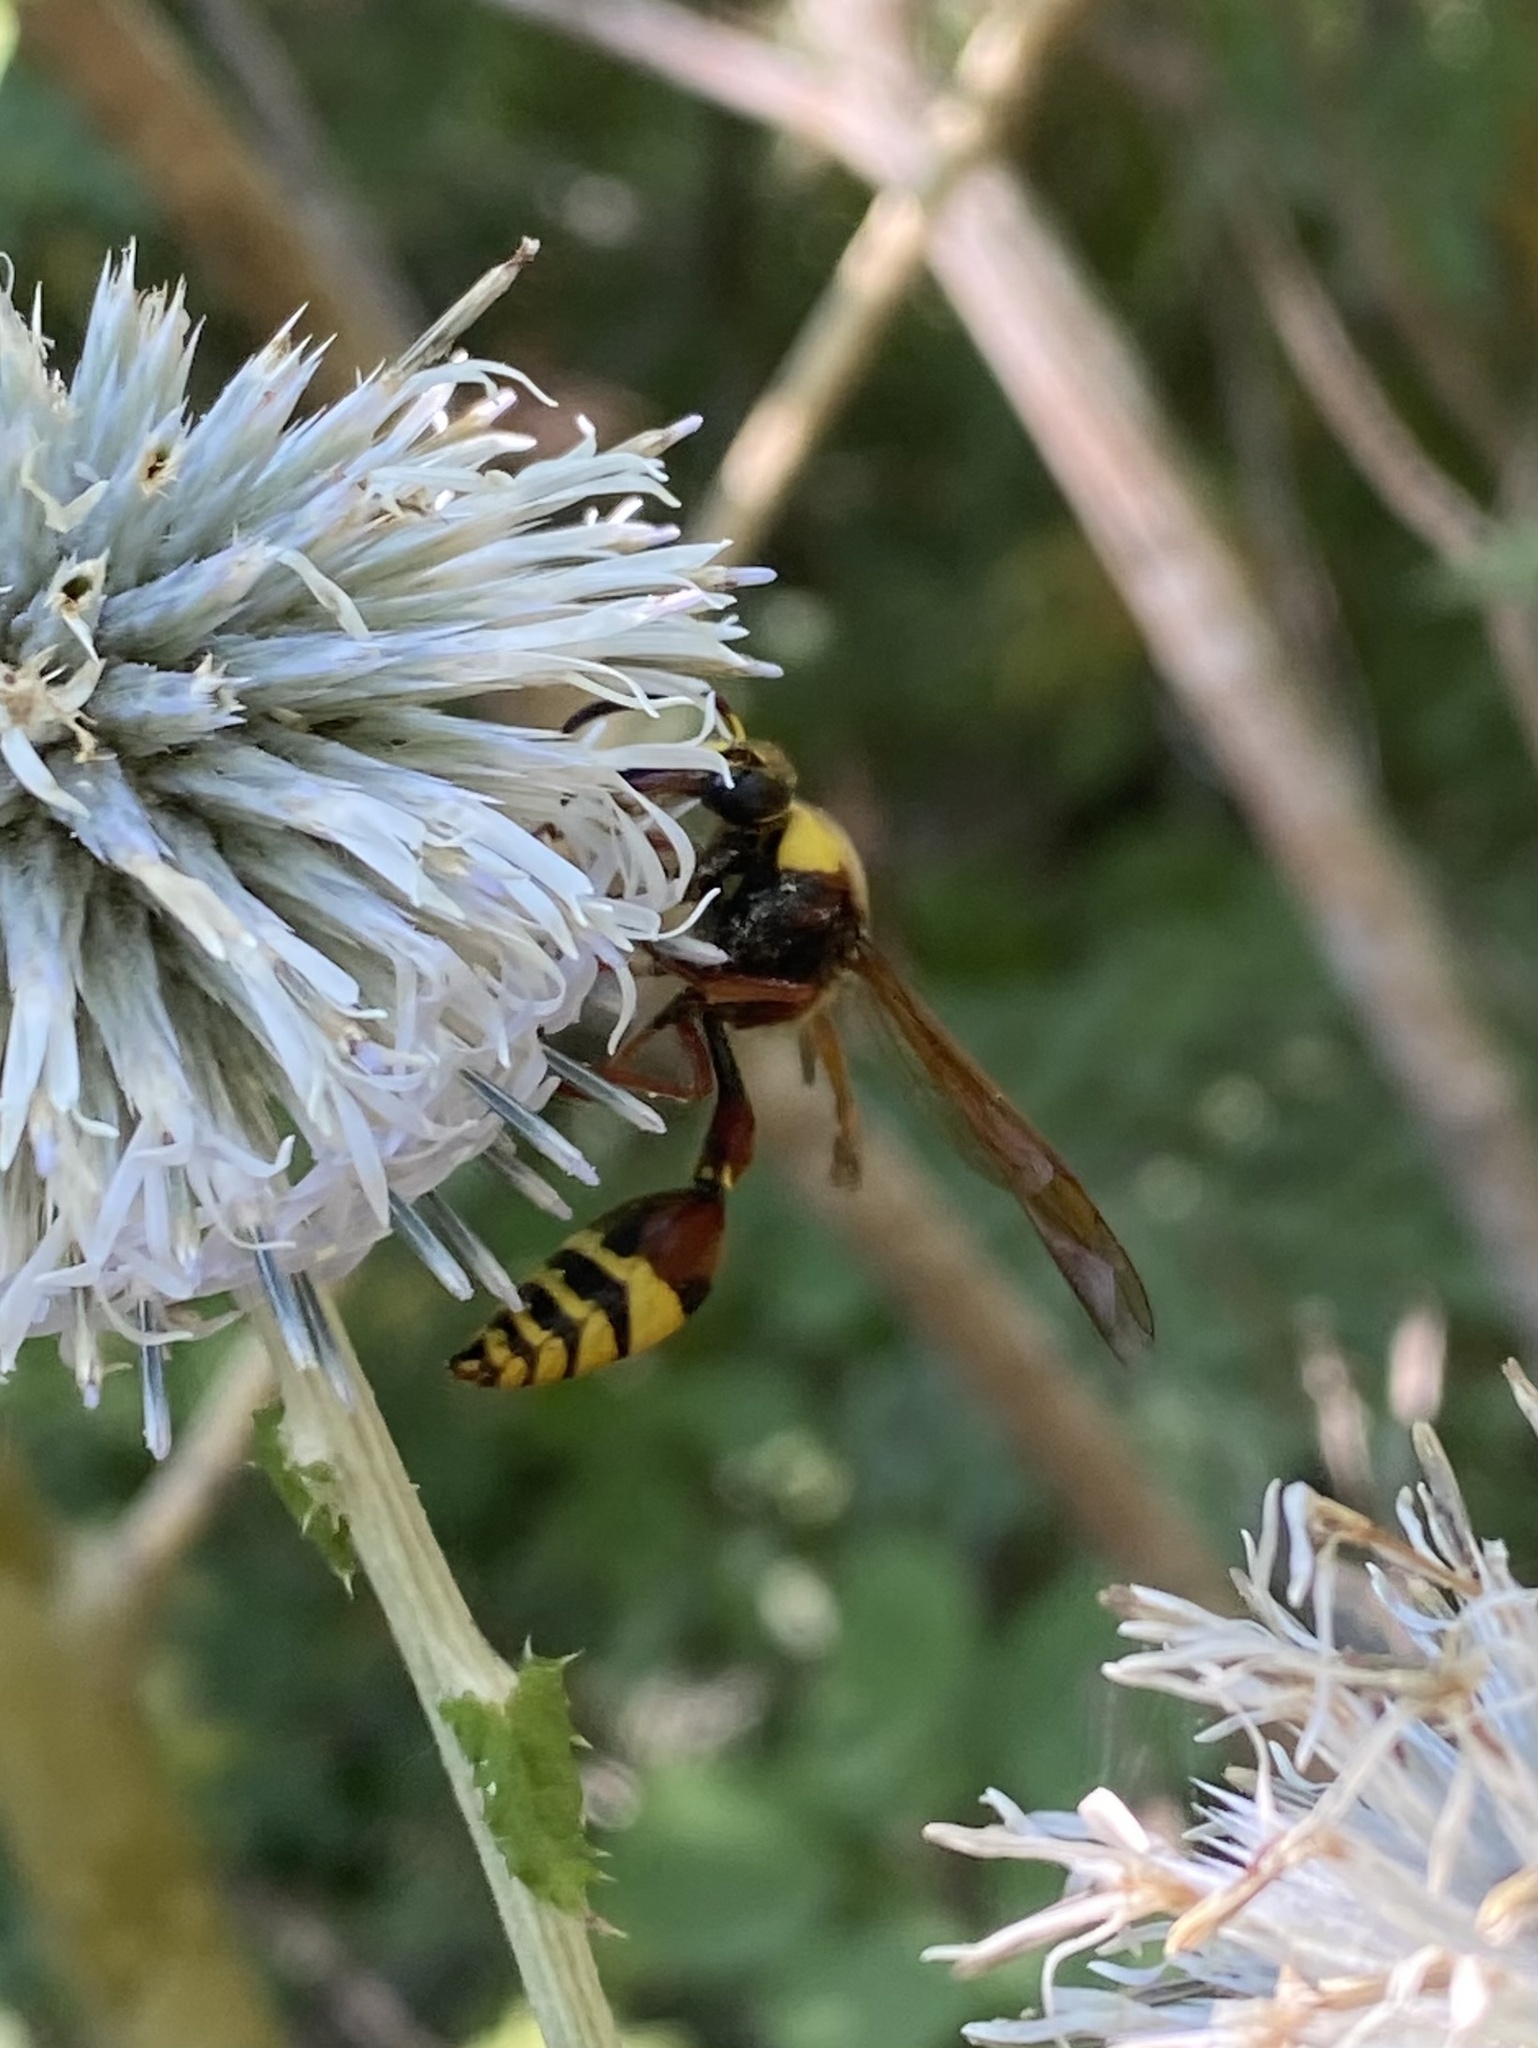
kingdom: Animalia
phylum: Arthropoda
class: Insecta
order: Hymenoptera
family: Eumenidae
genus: Delta
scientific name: Delta unguiculatum
